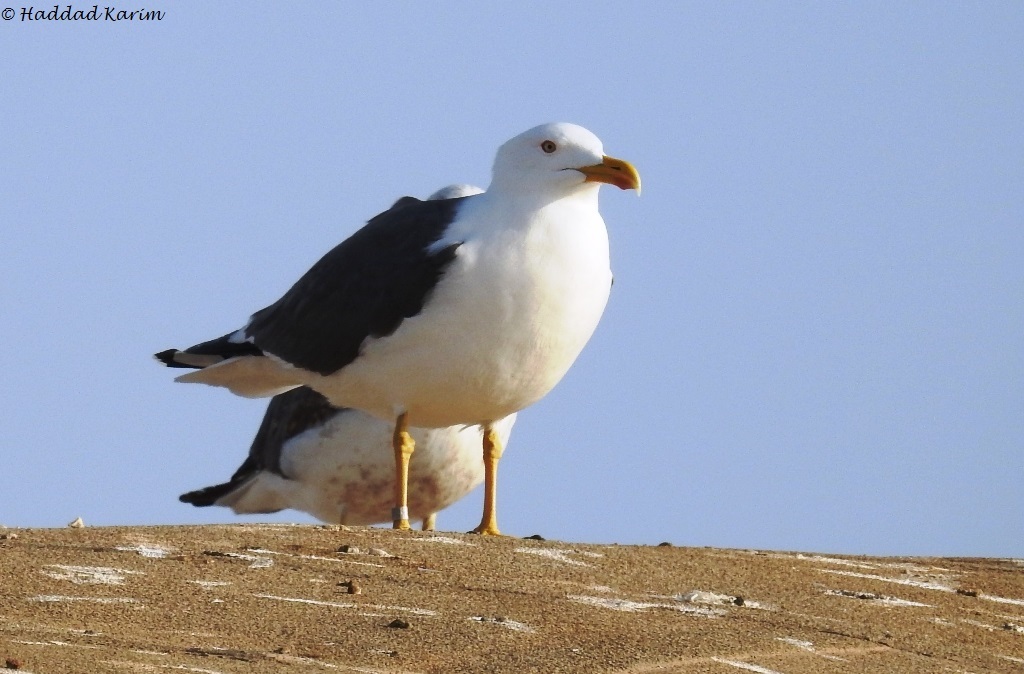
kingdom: Animalia
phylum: Chordata
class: Aves
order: Charadriiformes
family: Laridae
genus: Larus
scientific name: Larus fuscus
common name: Lesser black-backed gull
